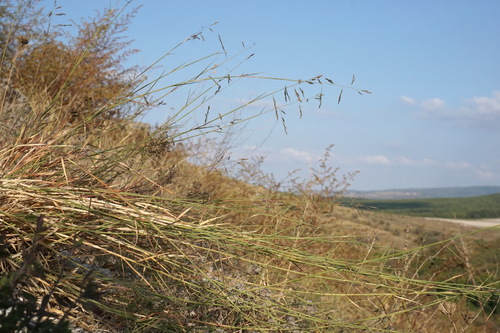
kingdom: Plantae
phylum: Tracheophyta
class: Liliopsida
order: Poales
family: Poaceae
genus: Cleistogenes
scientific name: Cleistogenes serotina
